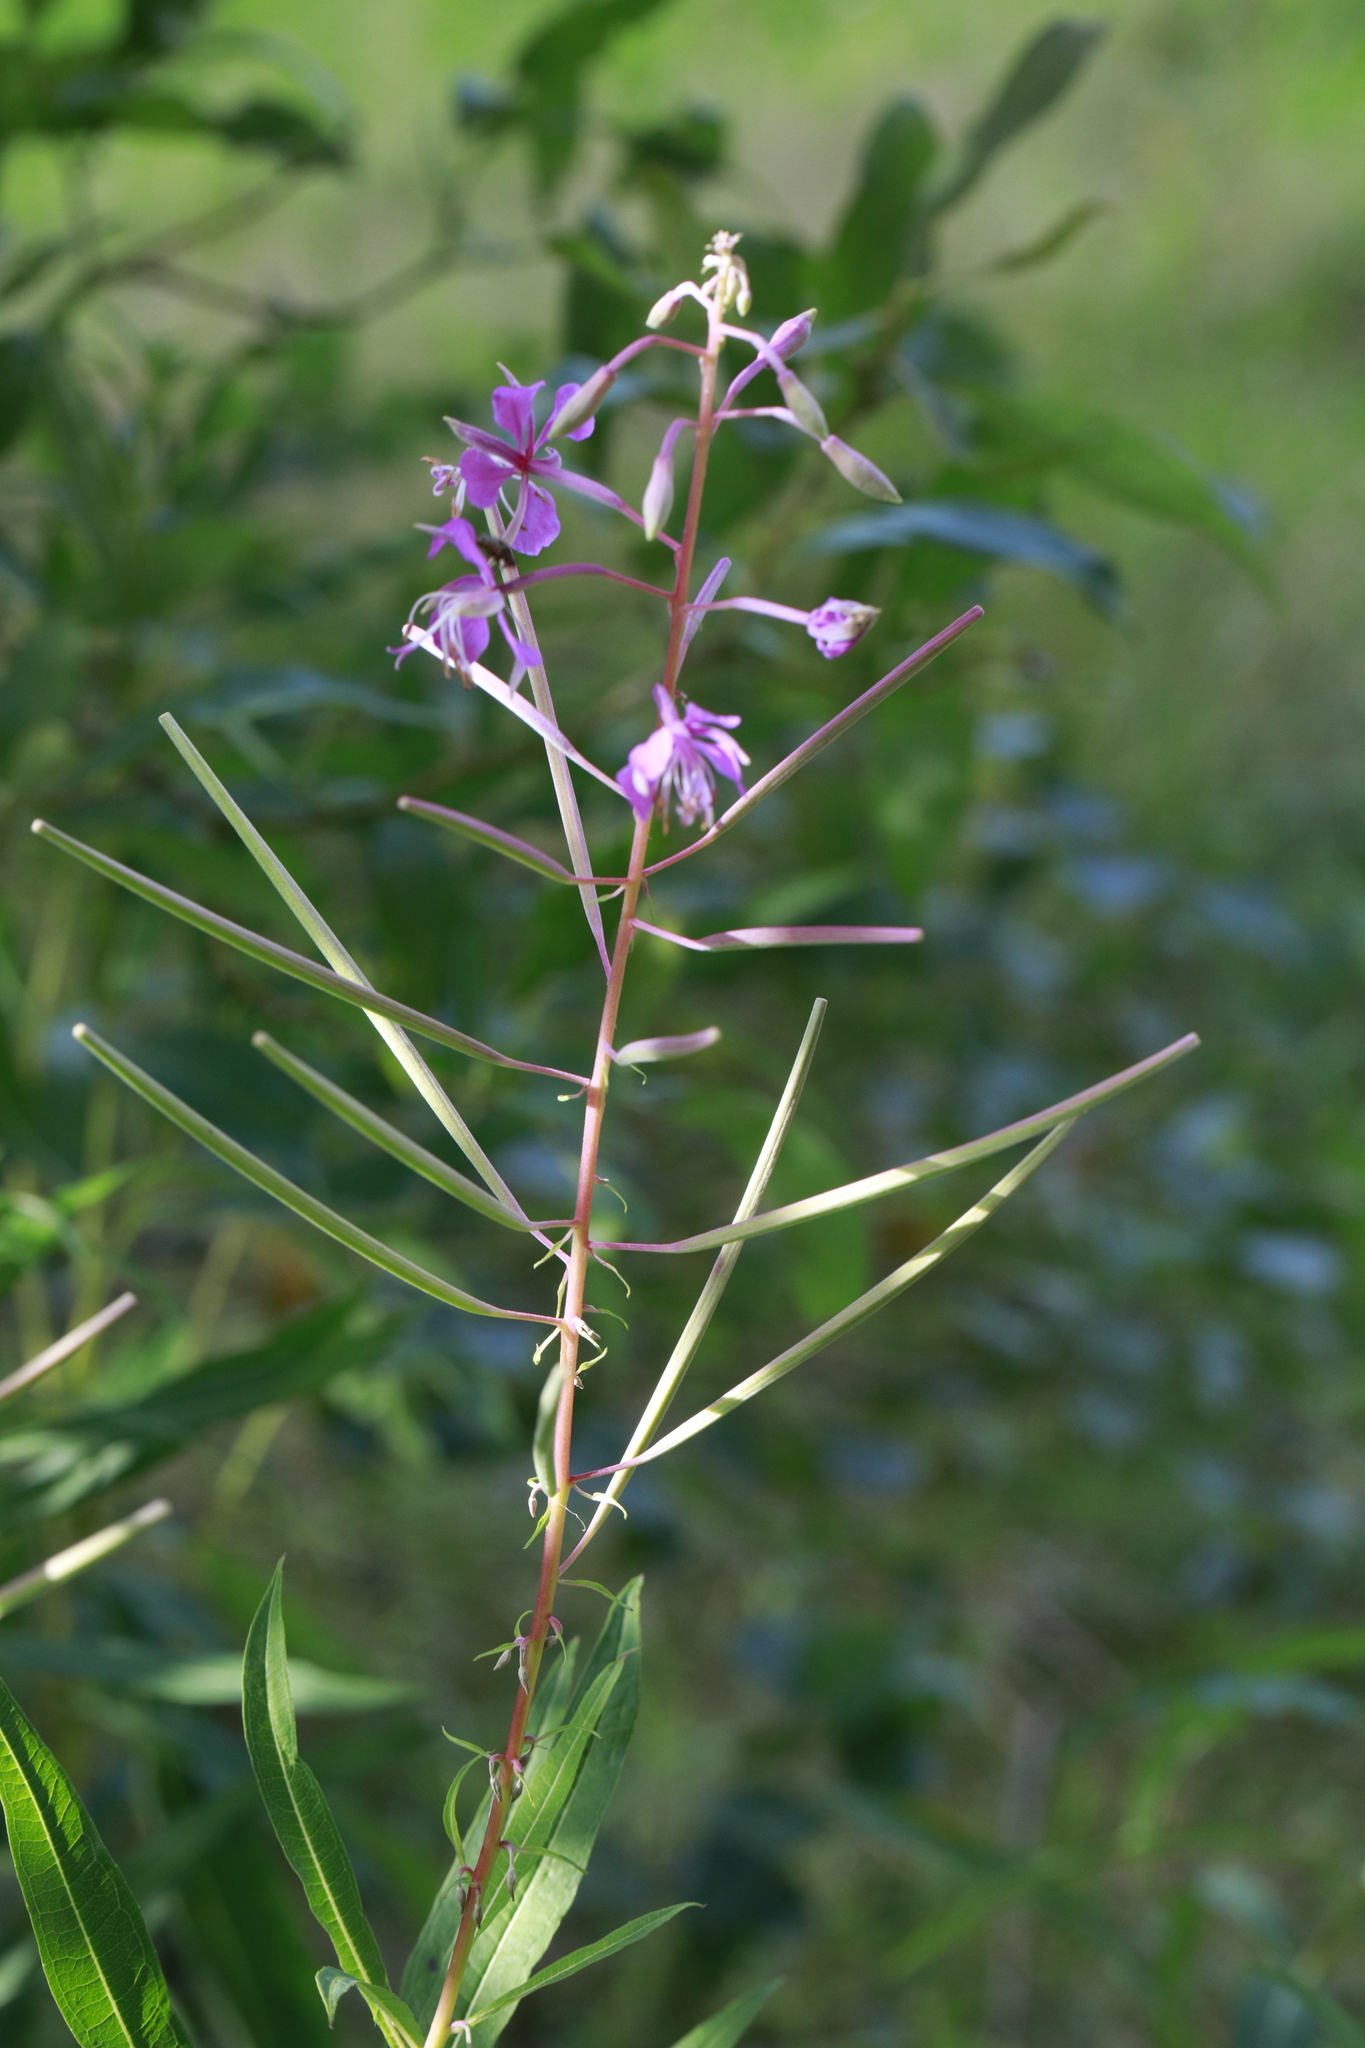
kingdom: Plantae
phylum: Tracheophyta
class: Magnoliopsida
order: Myrtales
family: Onagraceae
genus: Chamaenerion
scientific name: Chamaenerion angustifolium
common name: Fireweed
